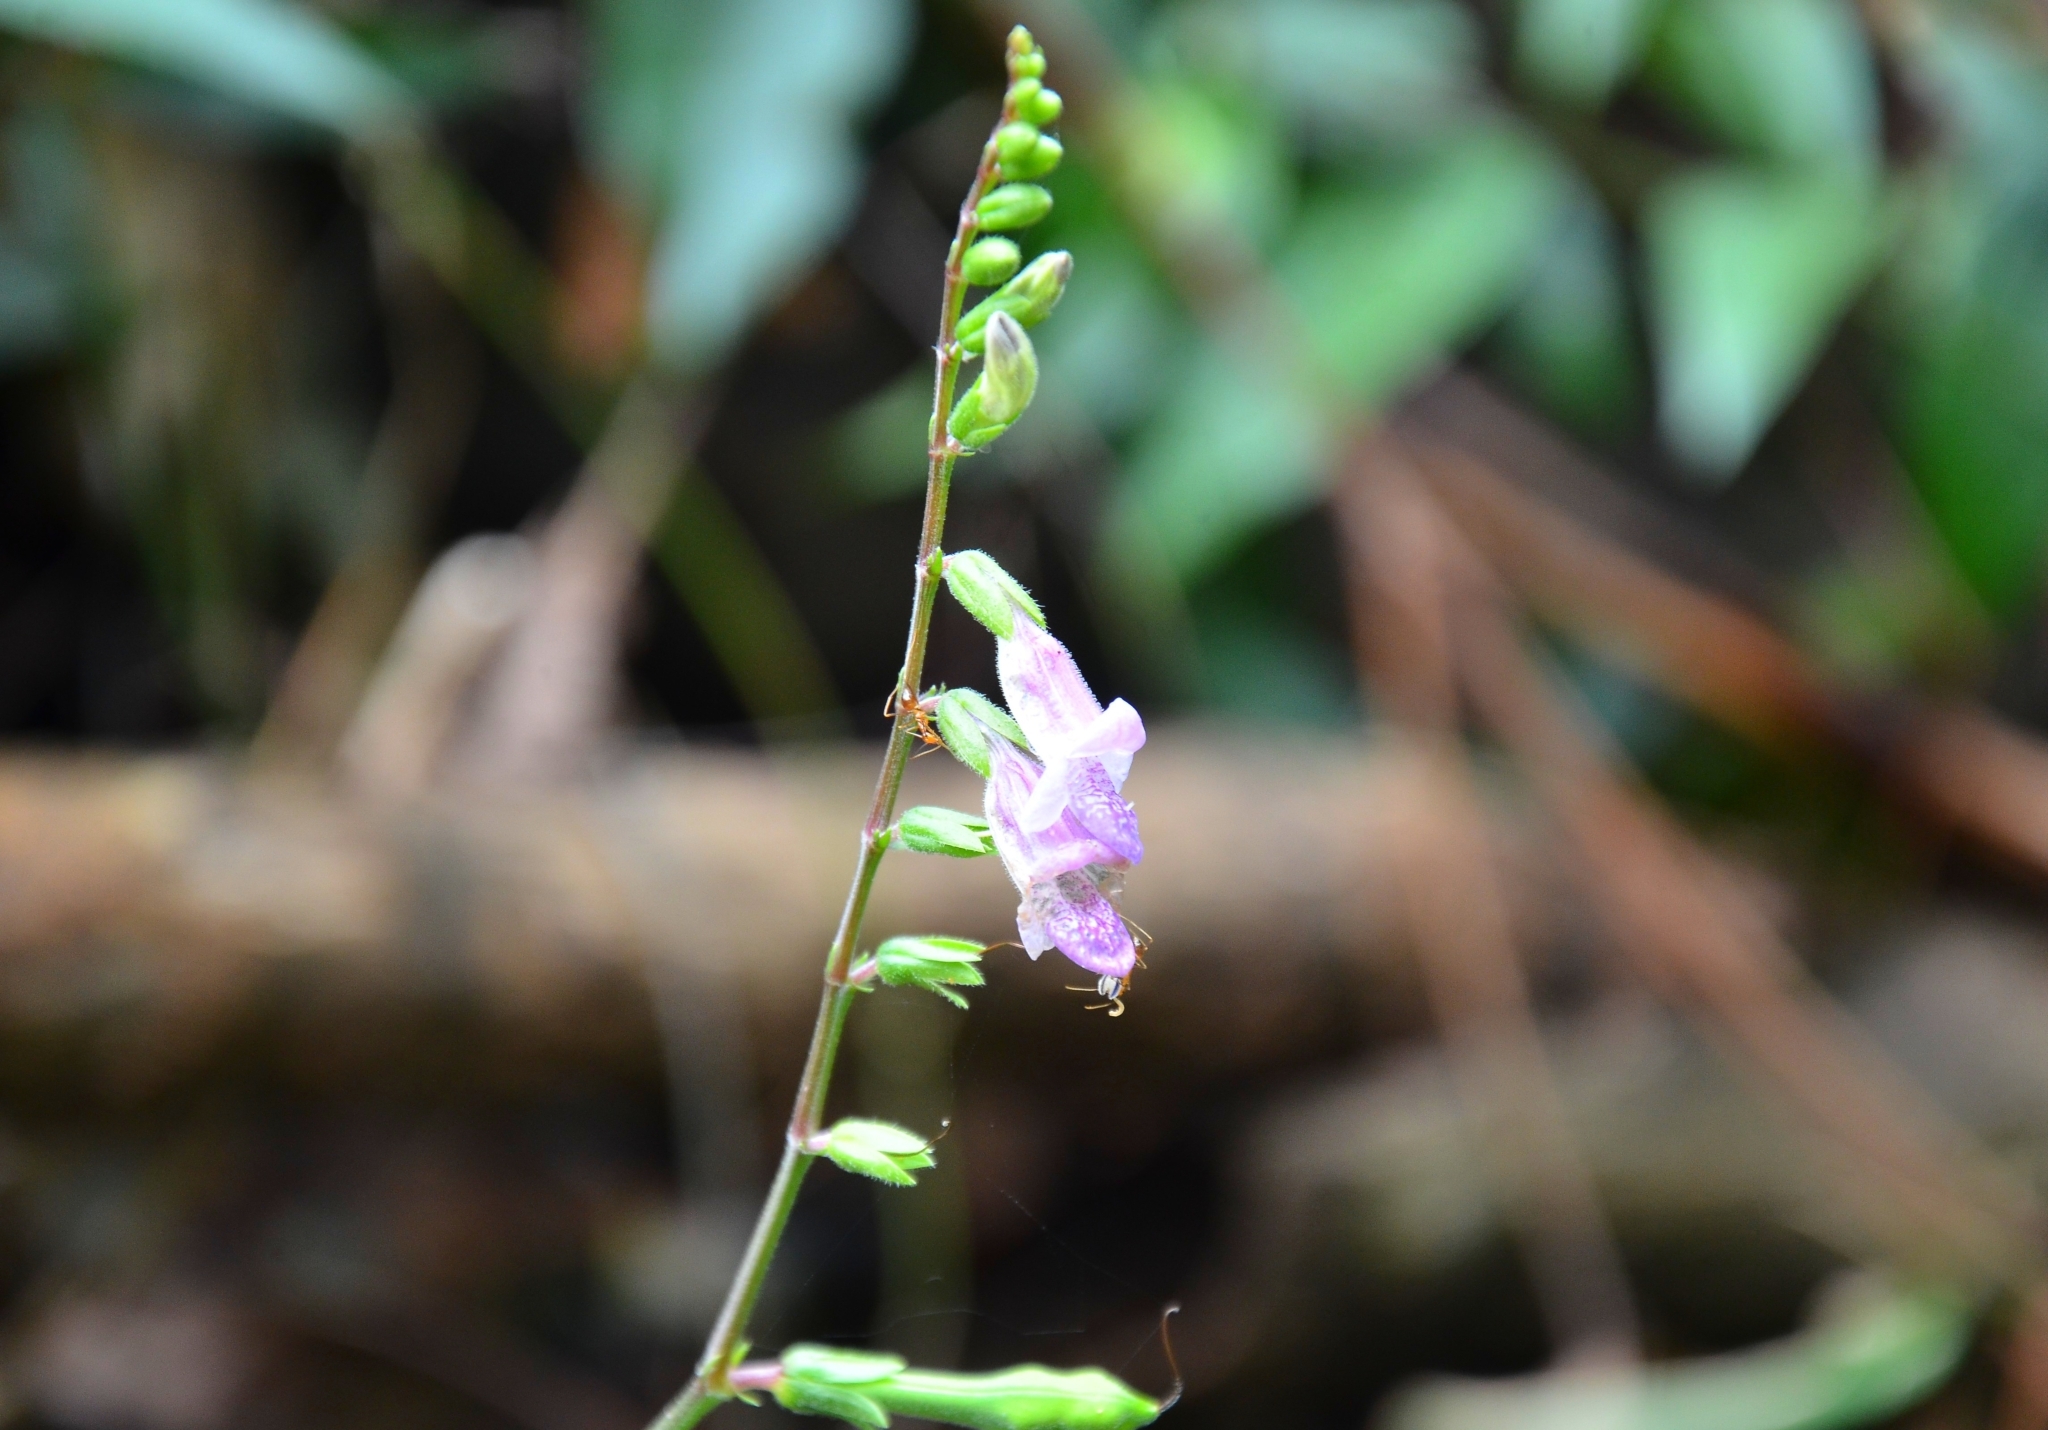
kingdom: Plantae
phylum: Tracheophyta
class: Magnoliopsida
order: Lamiales
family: Acanthaceae
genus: Asystasia
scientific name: Asystasia dalzelliana
